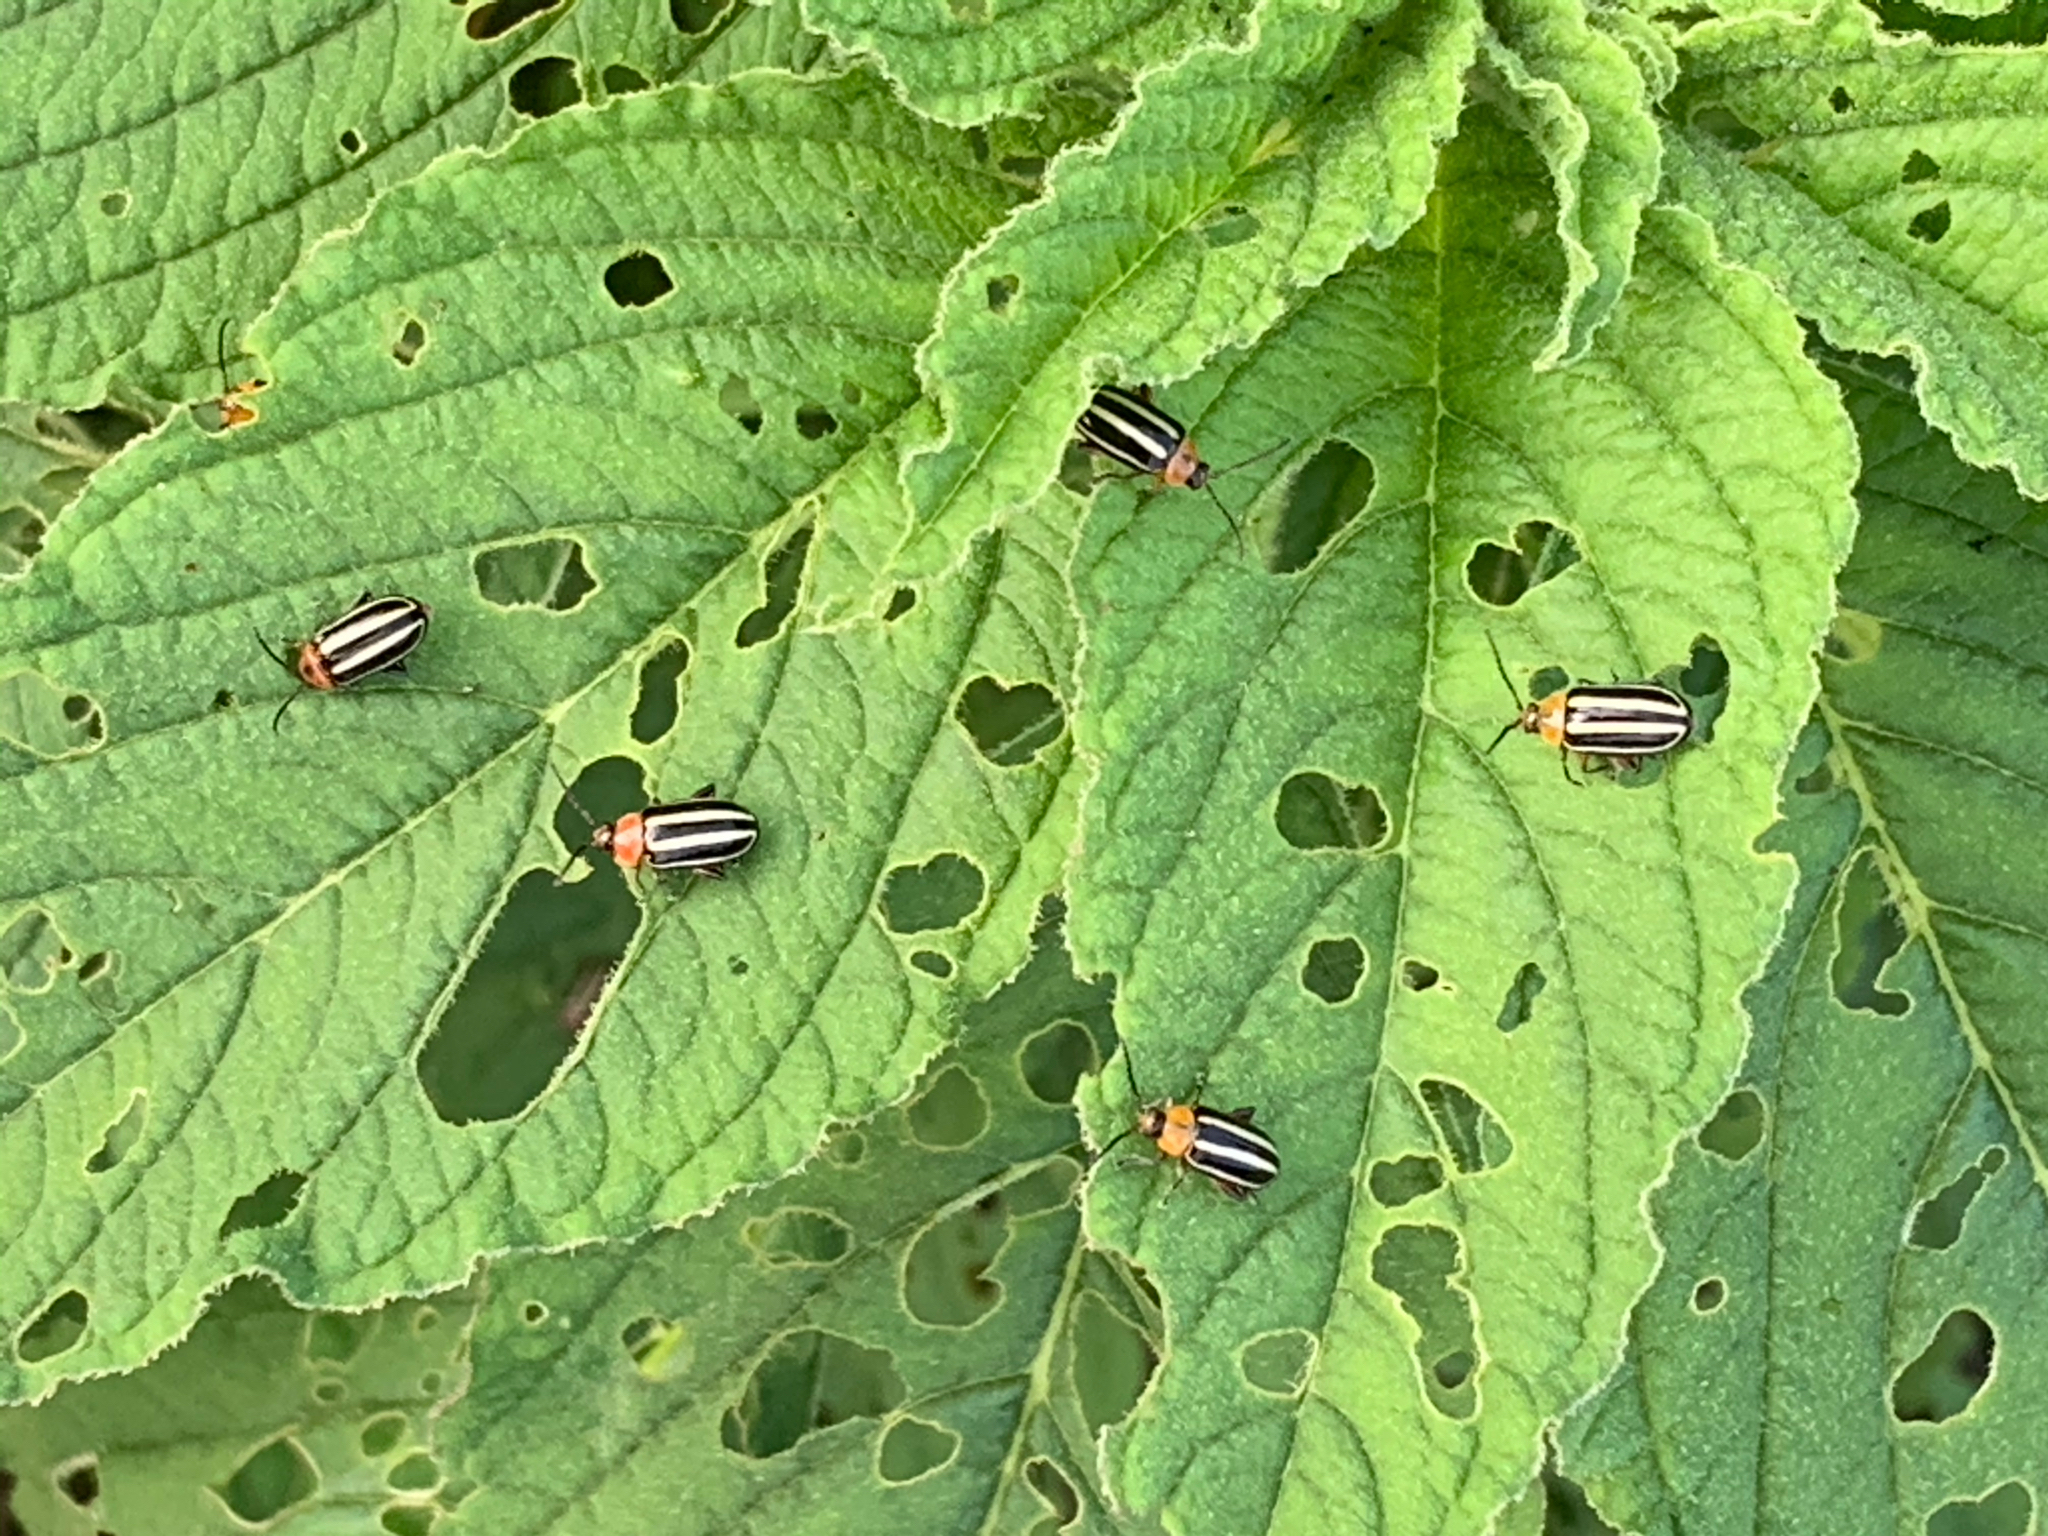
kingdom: Animalia
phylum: Arthropoda
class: Insecta
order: Coleoptera
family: Chrysomelidae
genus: Disonycha
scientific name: Disonycha glabrata
